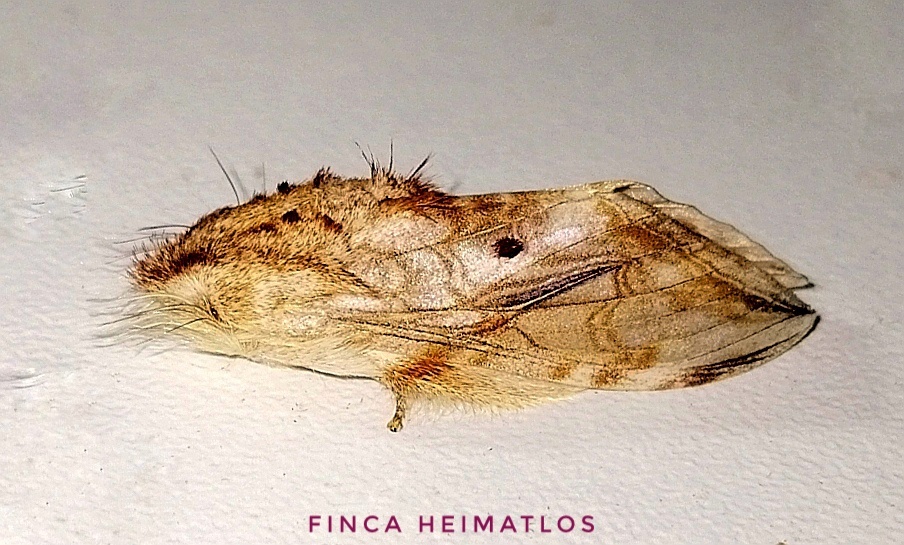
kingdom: Animalia
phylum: Arthropoda
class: Insecta
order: Lepidoptera
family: Notodontidae
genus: Trumanda
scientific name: Trumanda
